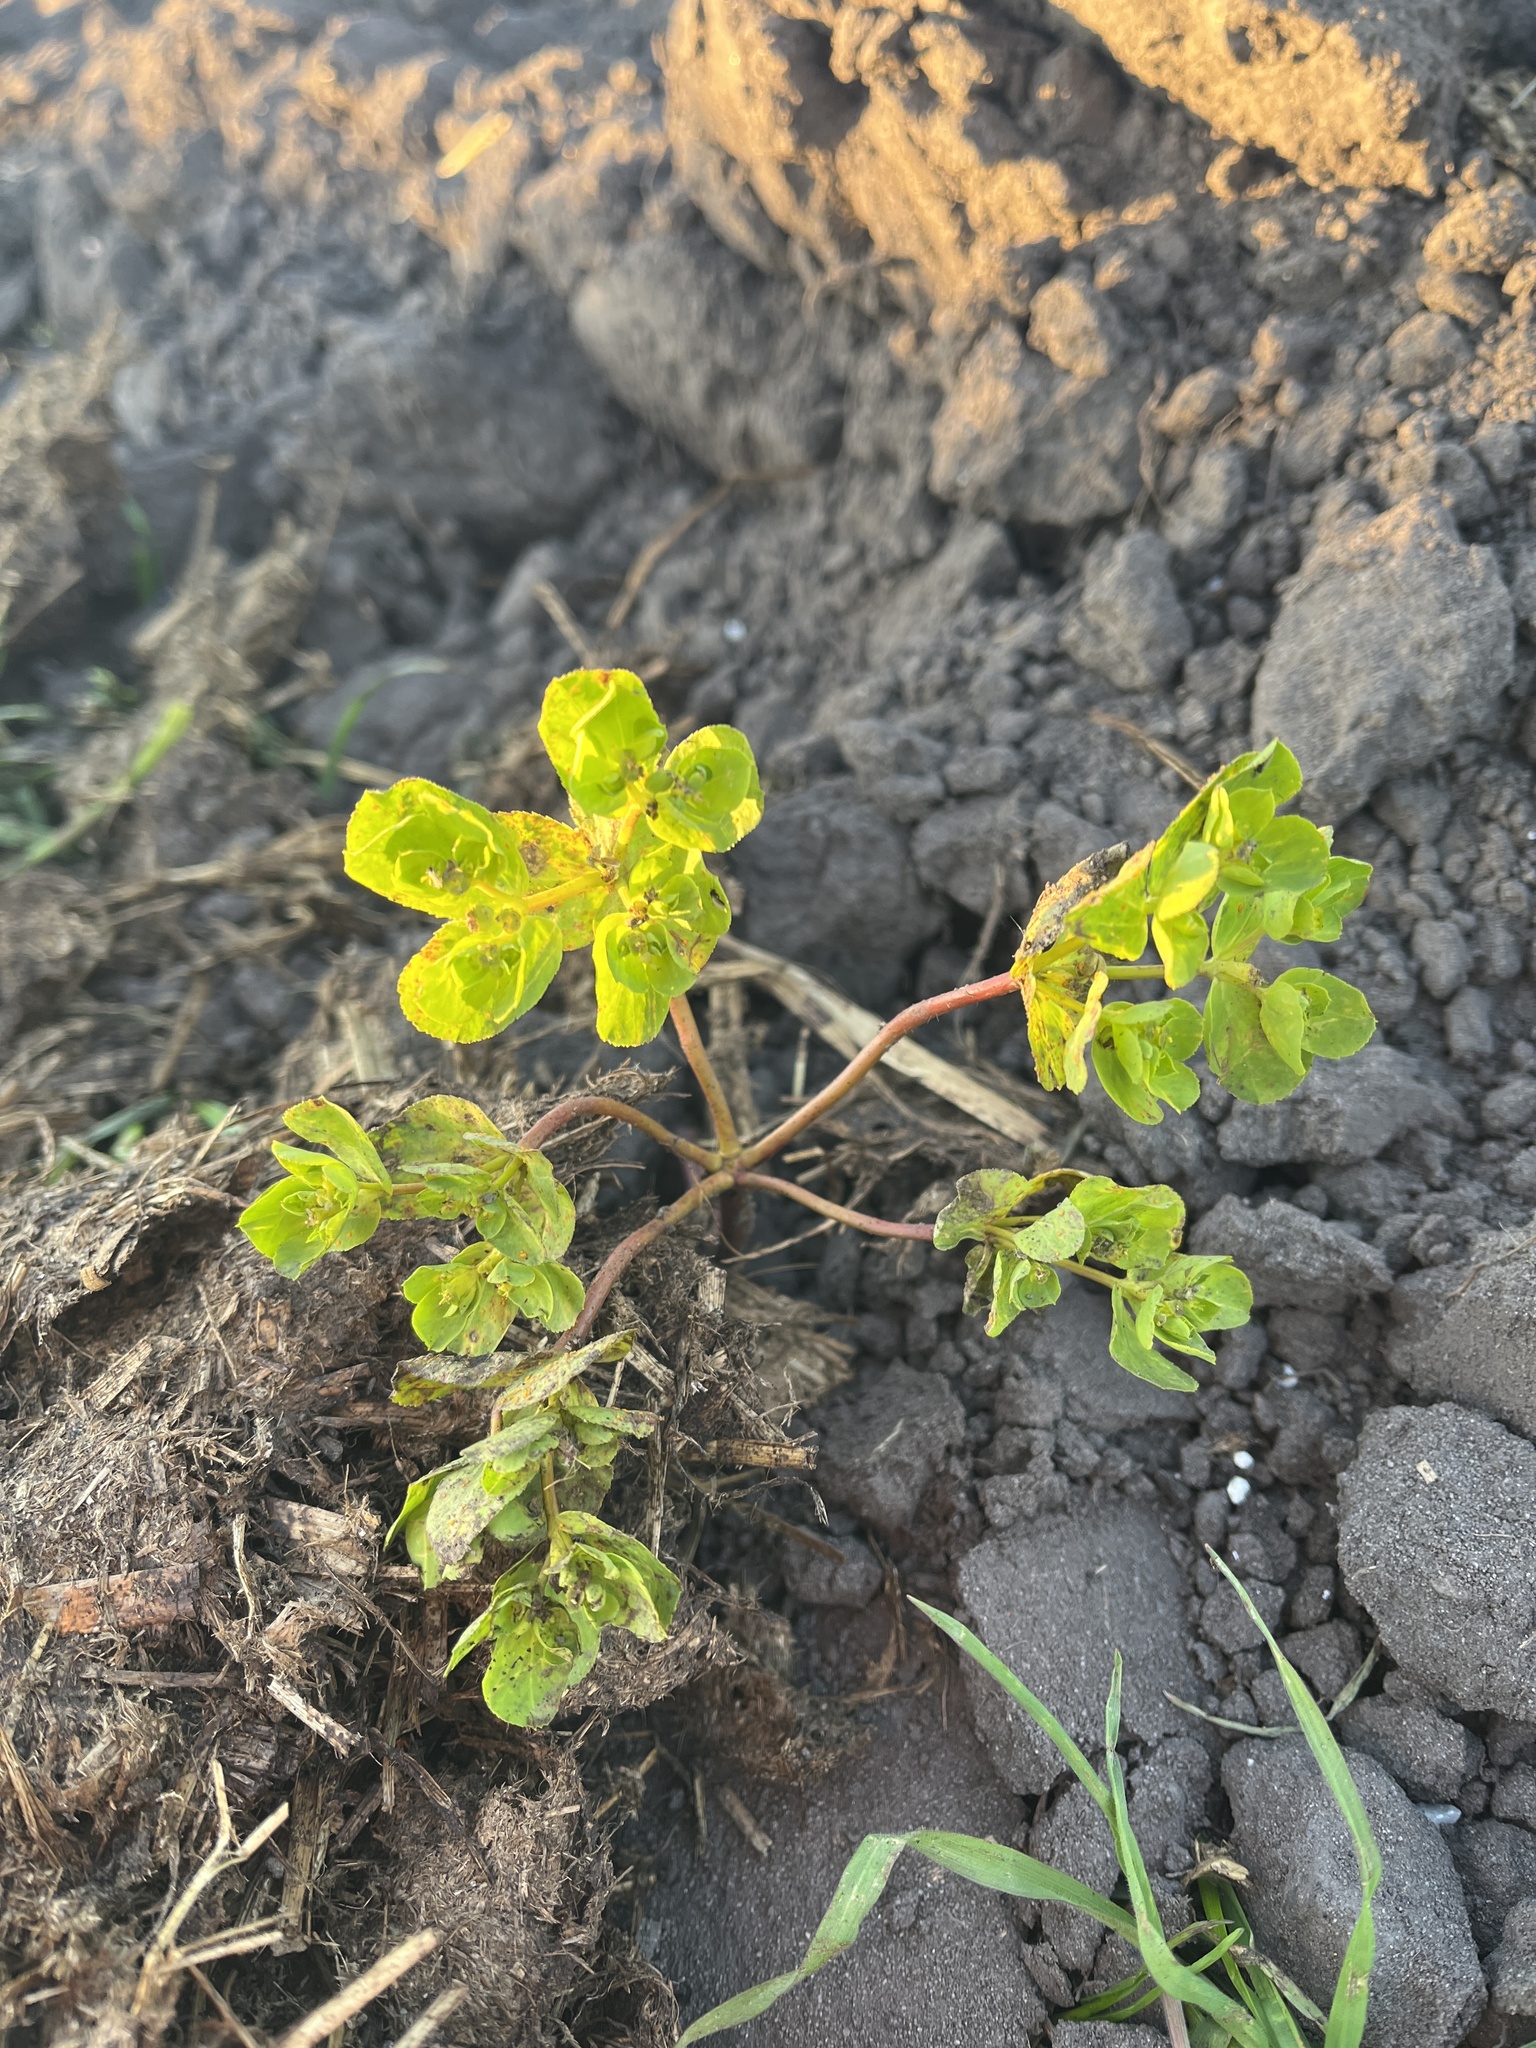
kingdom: Plantae
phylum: Tracheophyta
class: Magnoliopsida
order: Malpighiales
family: Euphorbiaceae
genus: Euphorbia
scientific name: Euphorbia helioscopia
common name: Sun spurge
